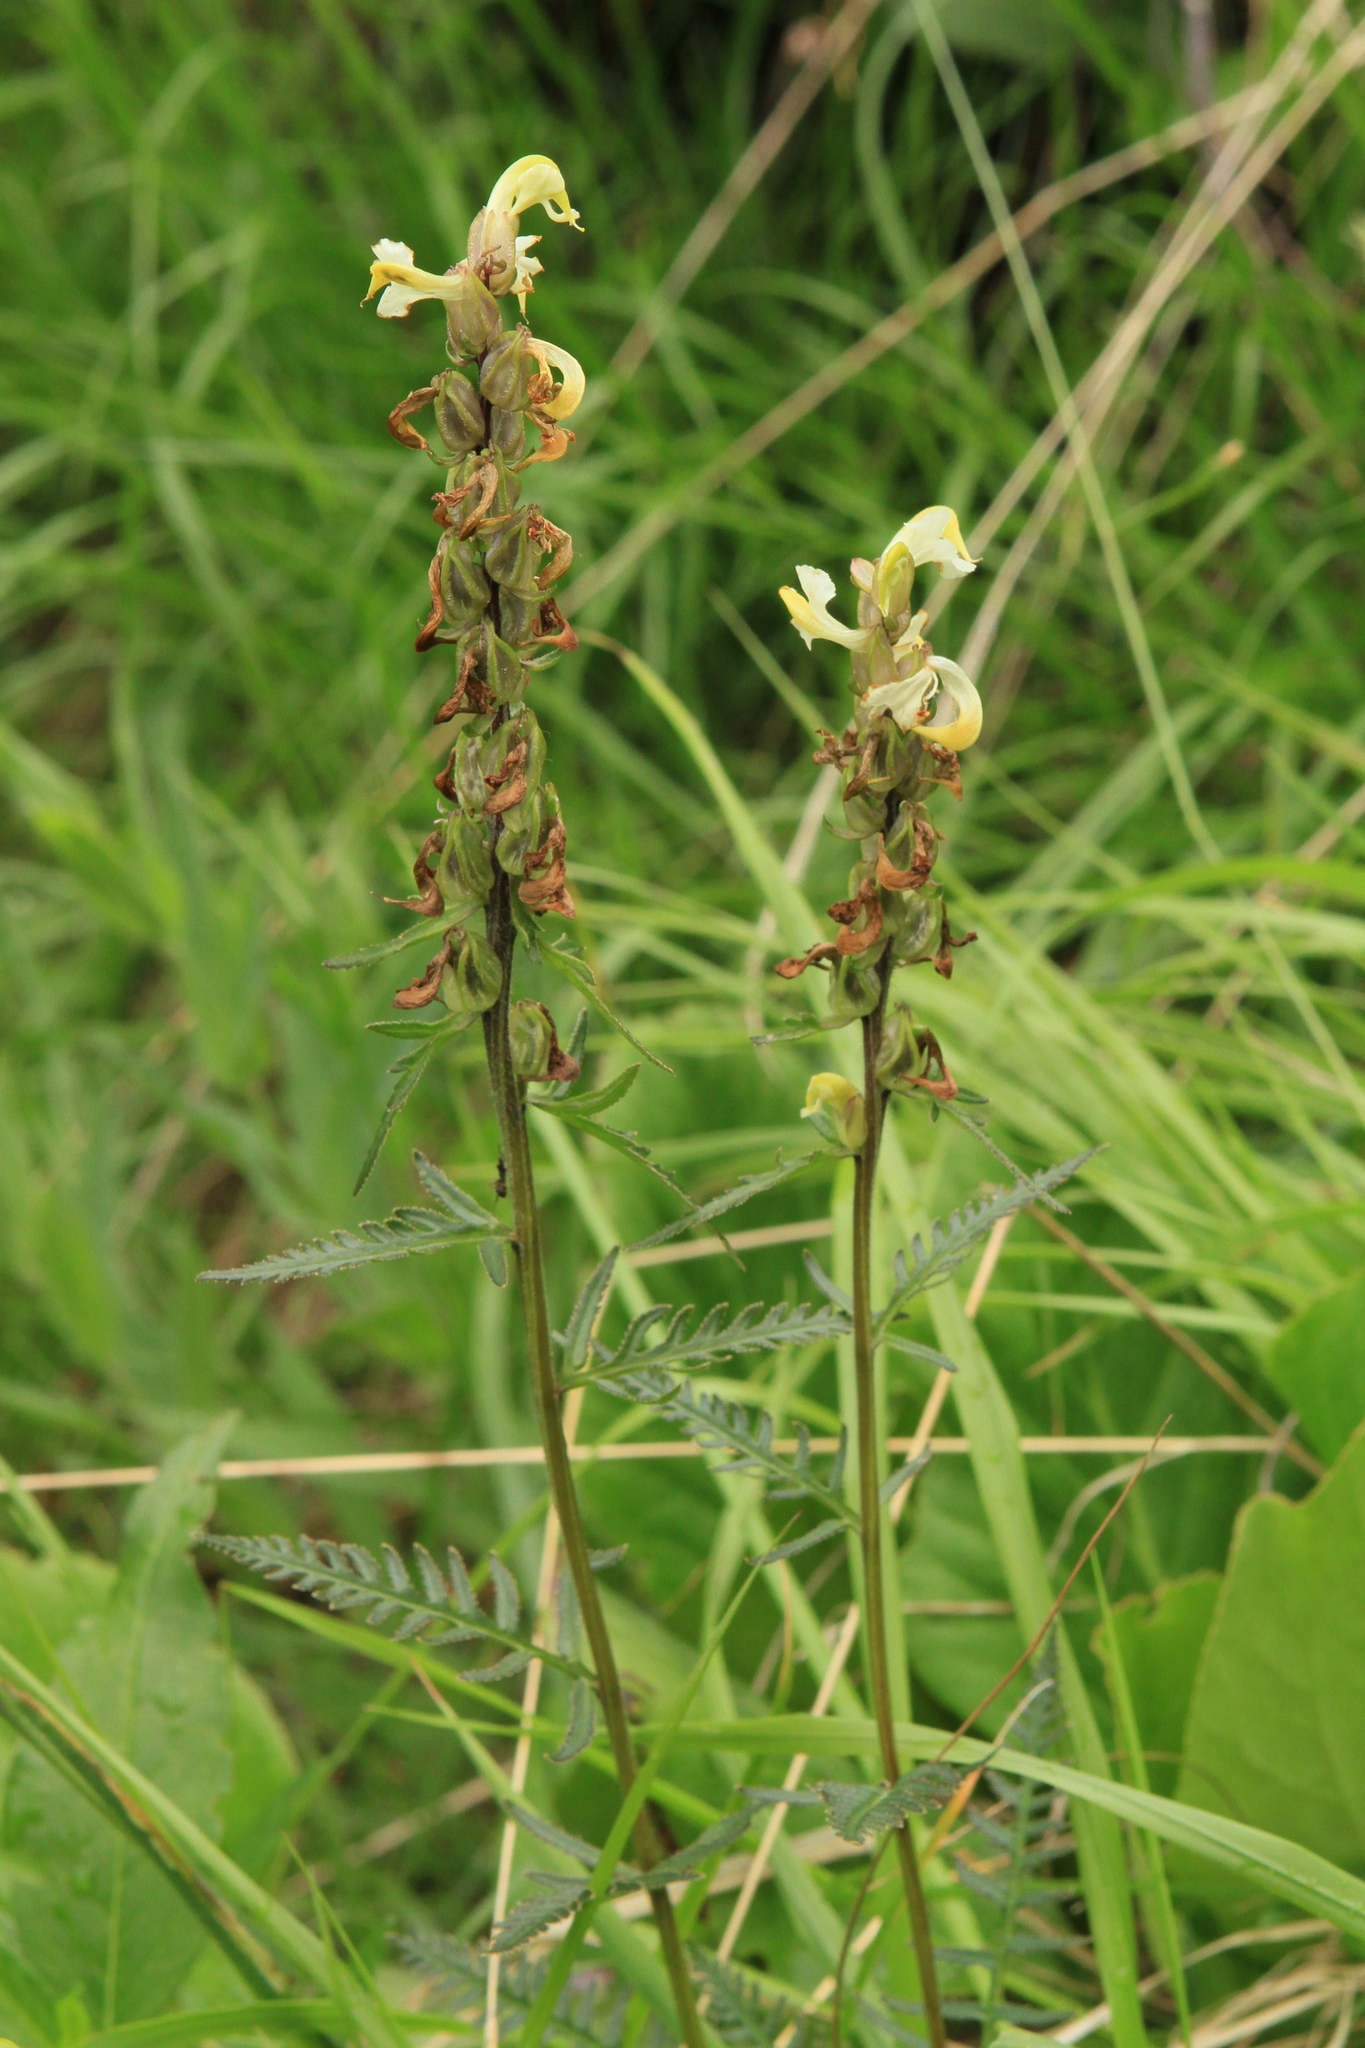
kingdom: Plantae
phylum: Tracheophyta
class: Magnoliopsida
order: Lamiales
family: Orobanchaceae
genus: Pedicularis
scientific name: Pedicularis brachystachys
